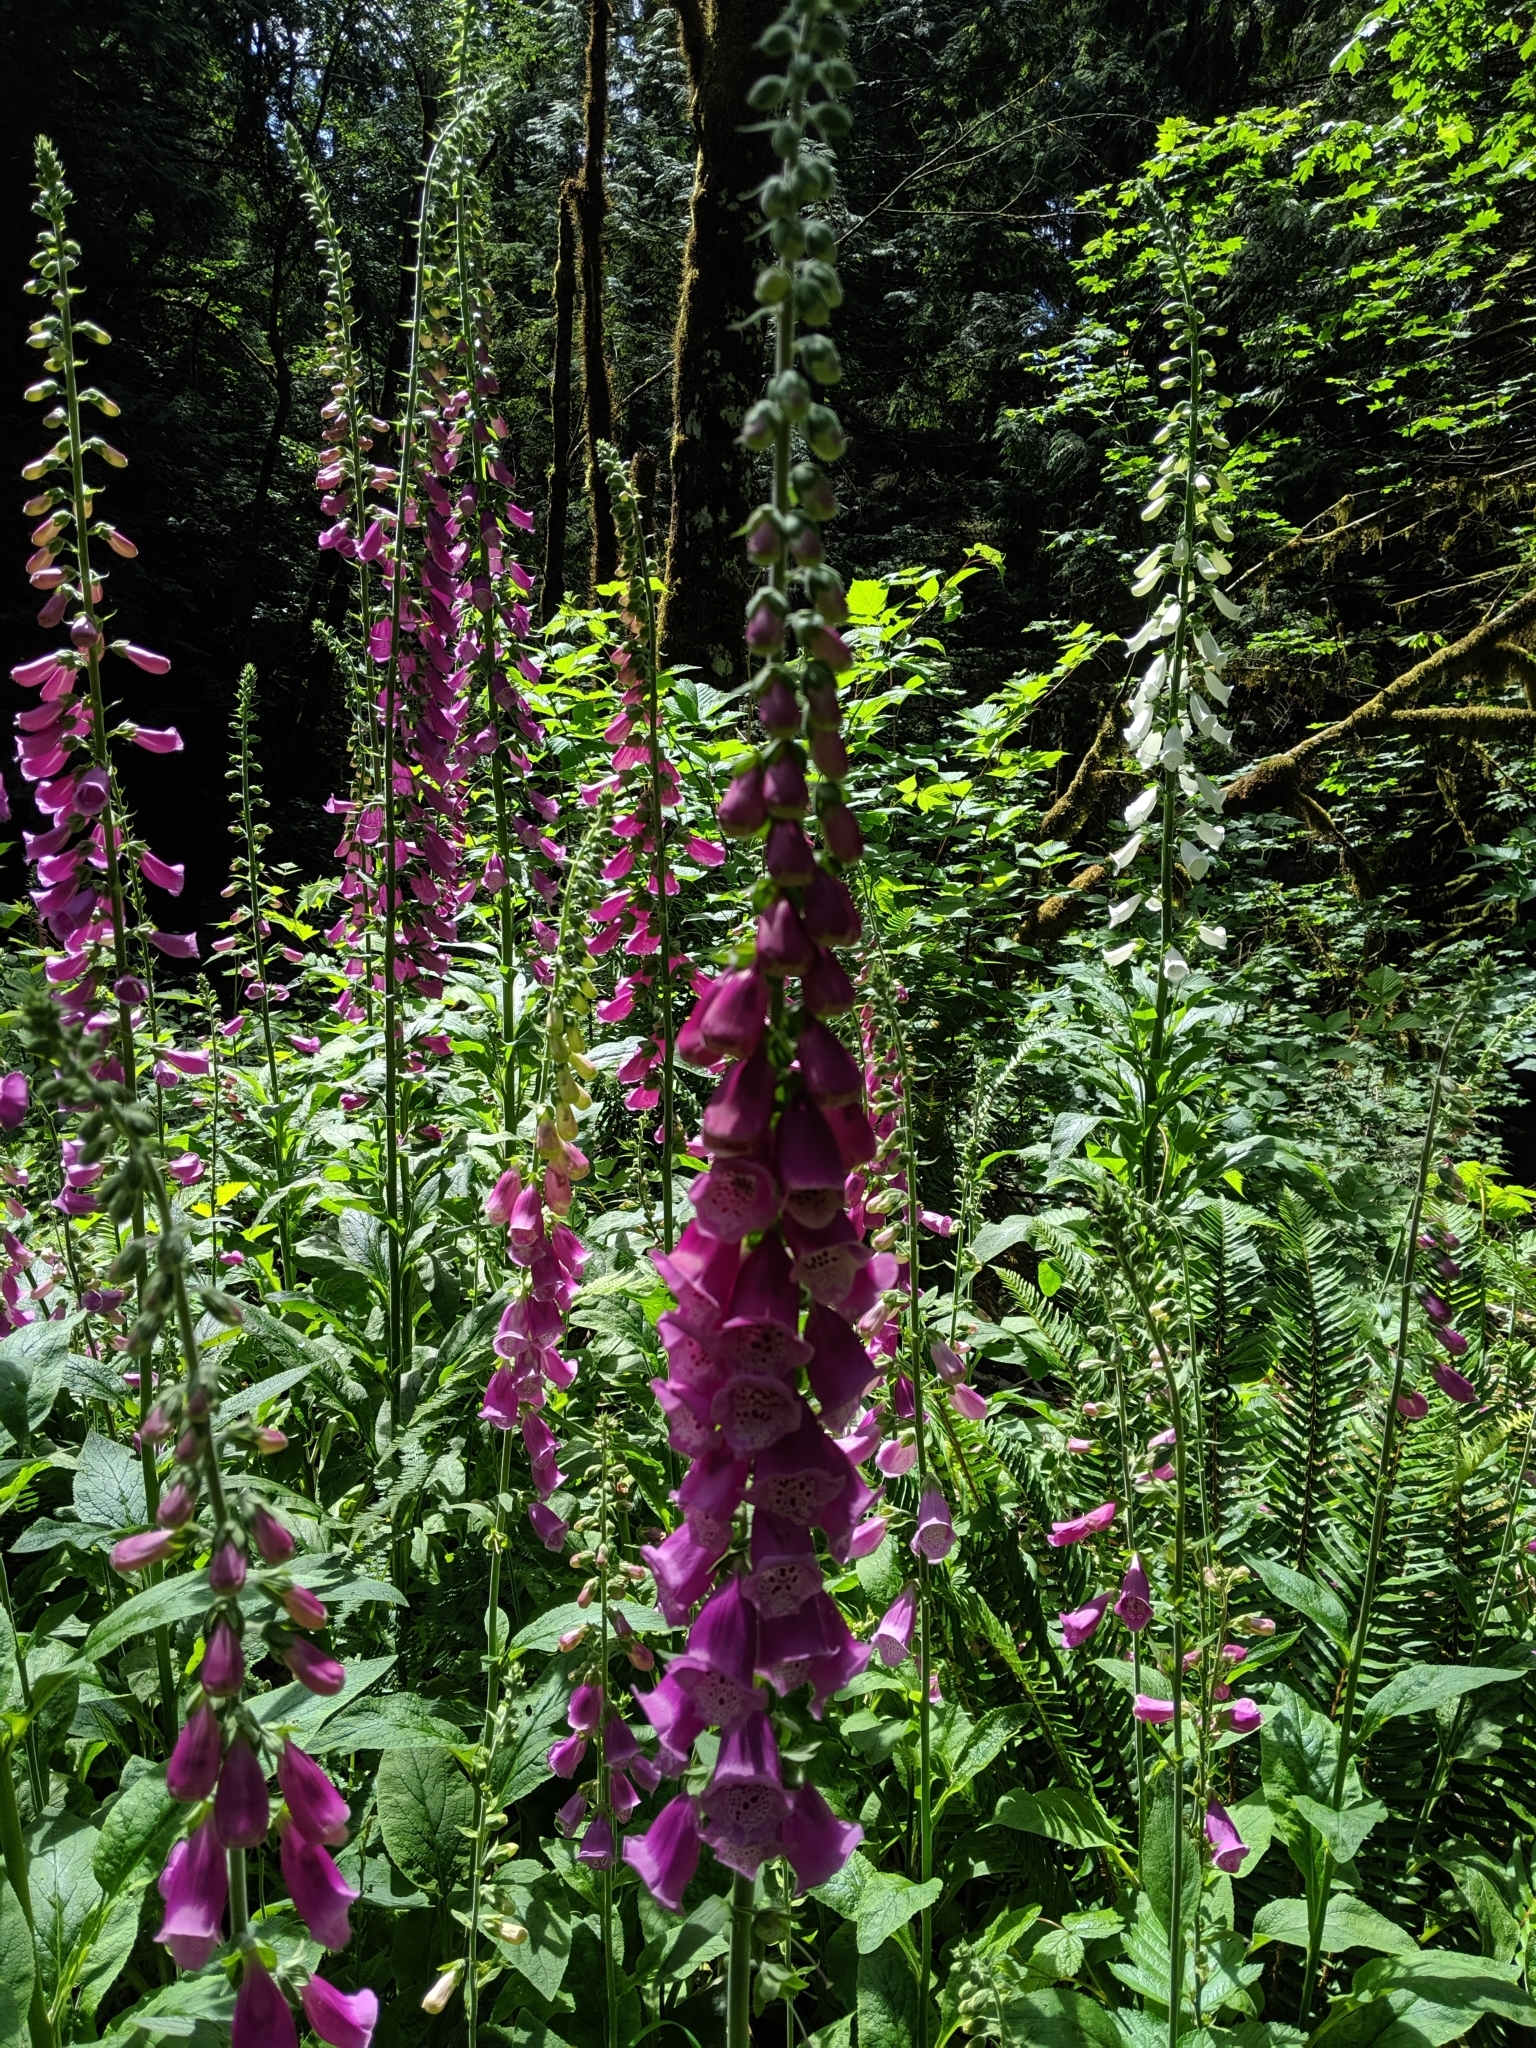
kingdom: Plantae
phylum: Tracheophyta
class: Magnoliopsida
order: Lamiales
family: Plantaginaceae
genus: Digitalis
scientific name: Digitalis purpurea
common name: Foxglove
